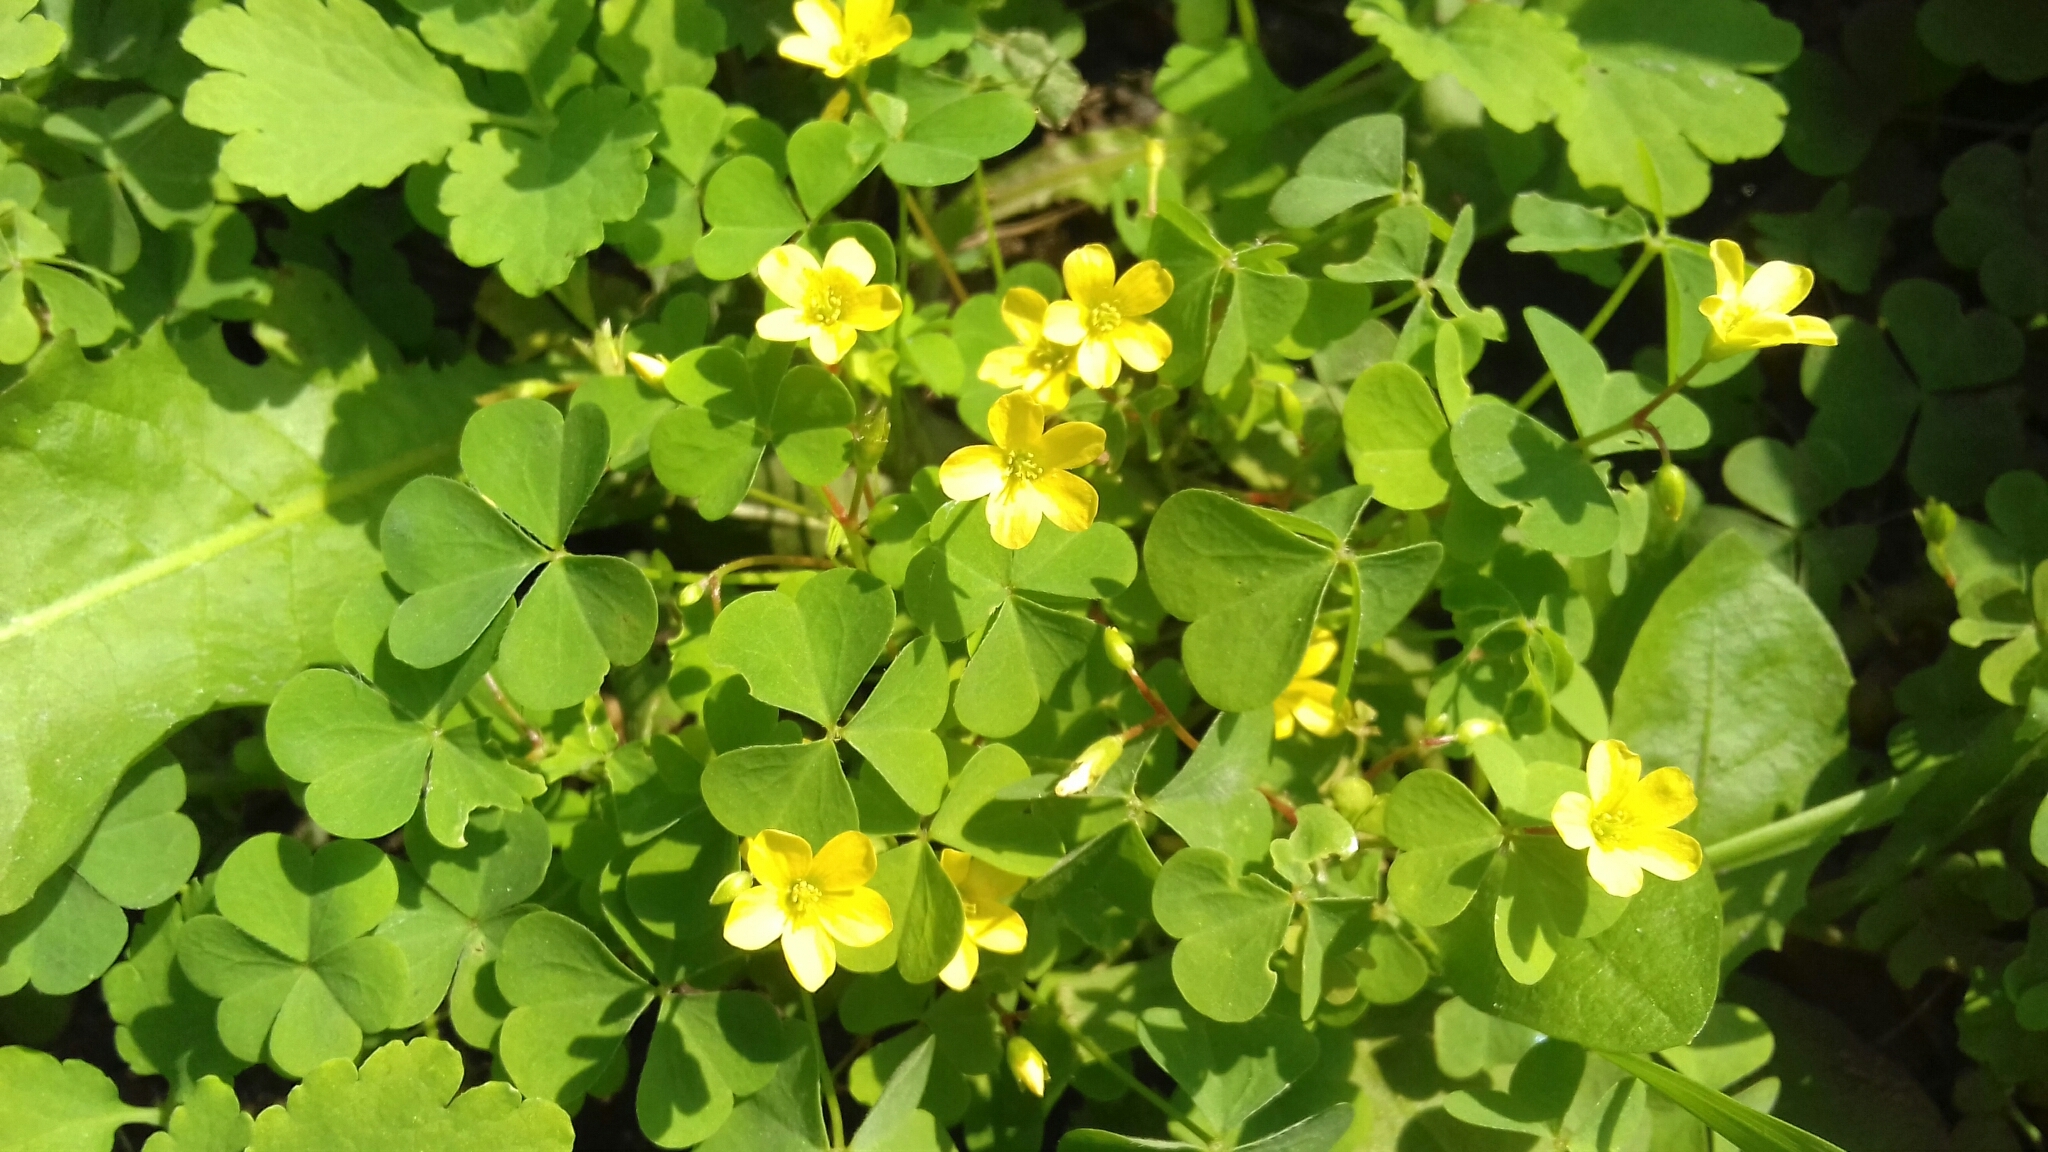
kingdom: Plantae
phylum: Tracheophyta
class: Magnoliopsida
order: Oxalidales
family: Oxalidaceae
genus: Oxalis
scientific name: Oxalis stricta
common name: Upright yellow-sorrel
